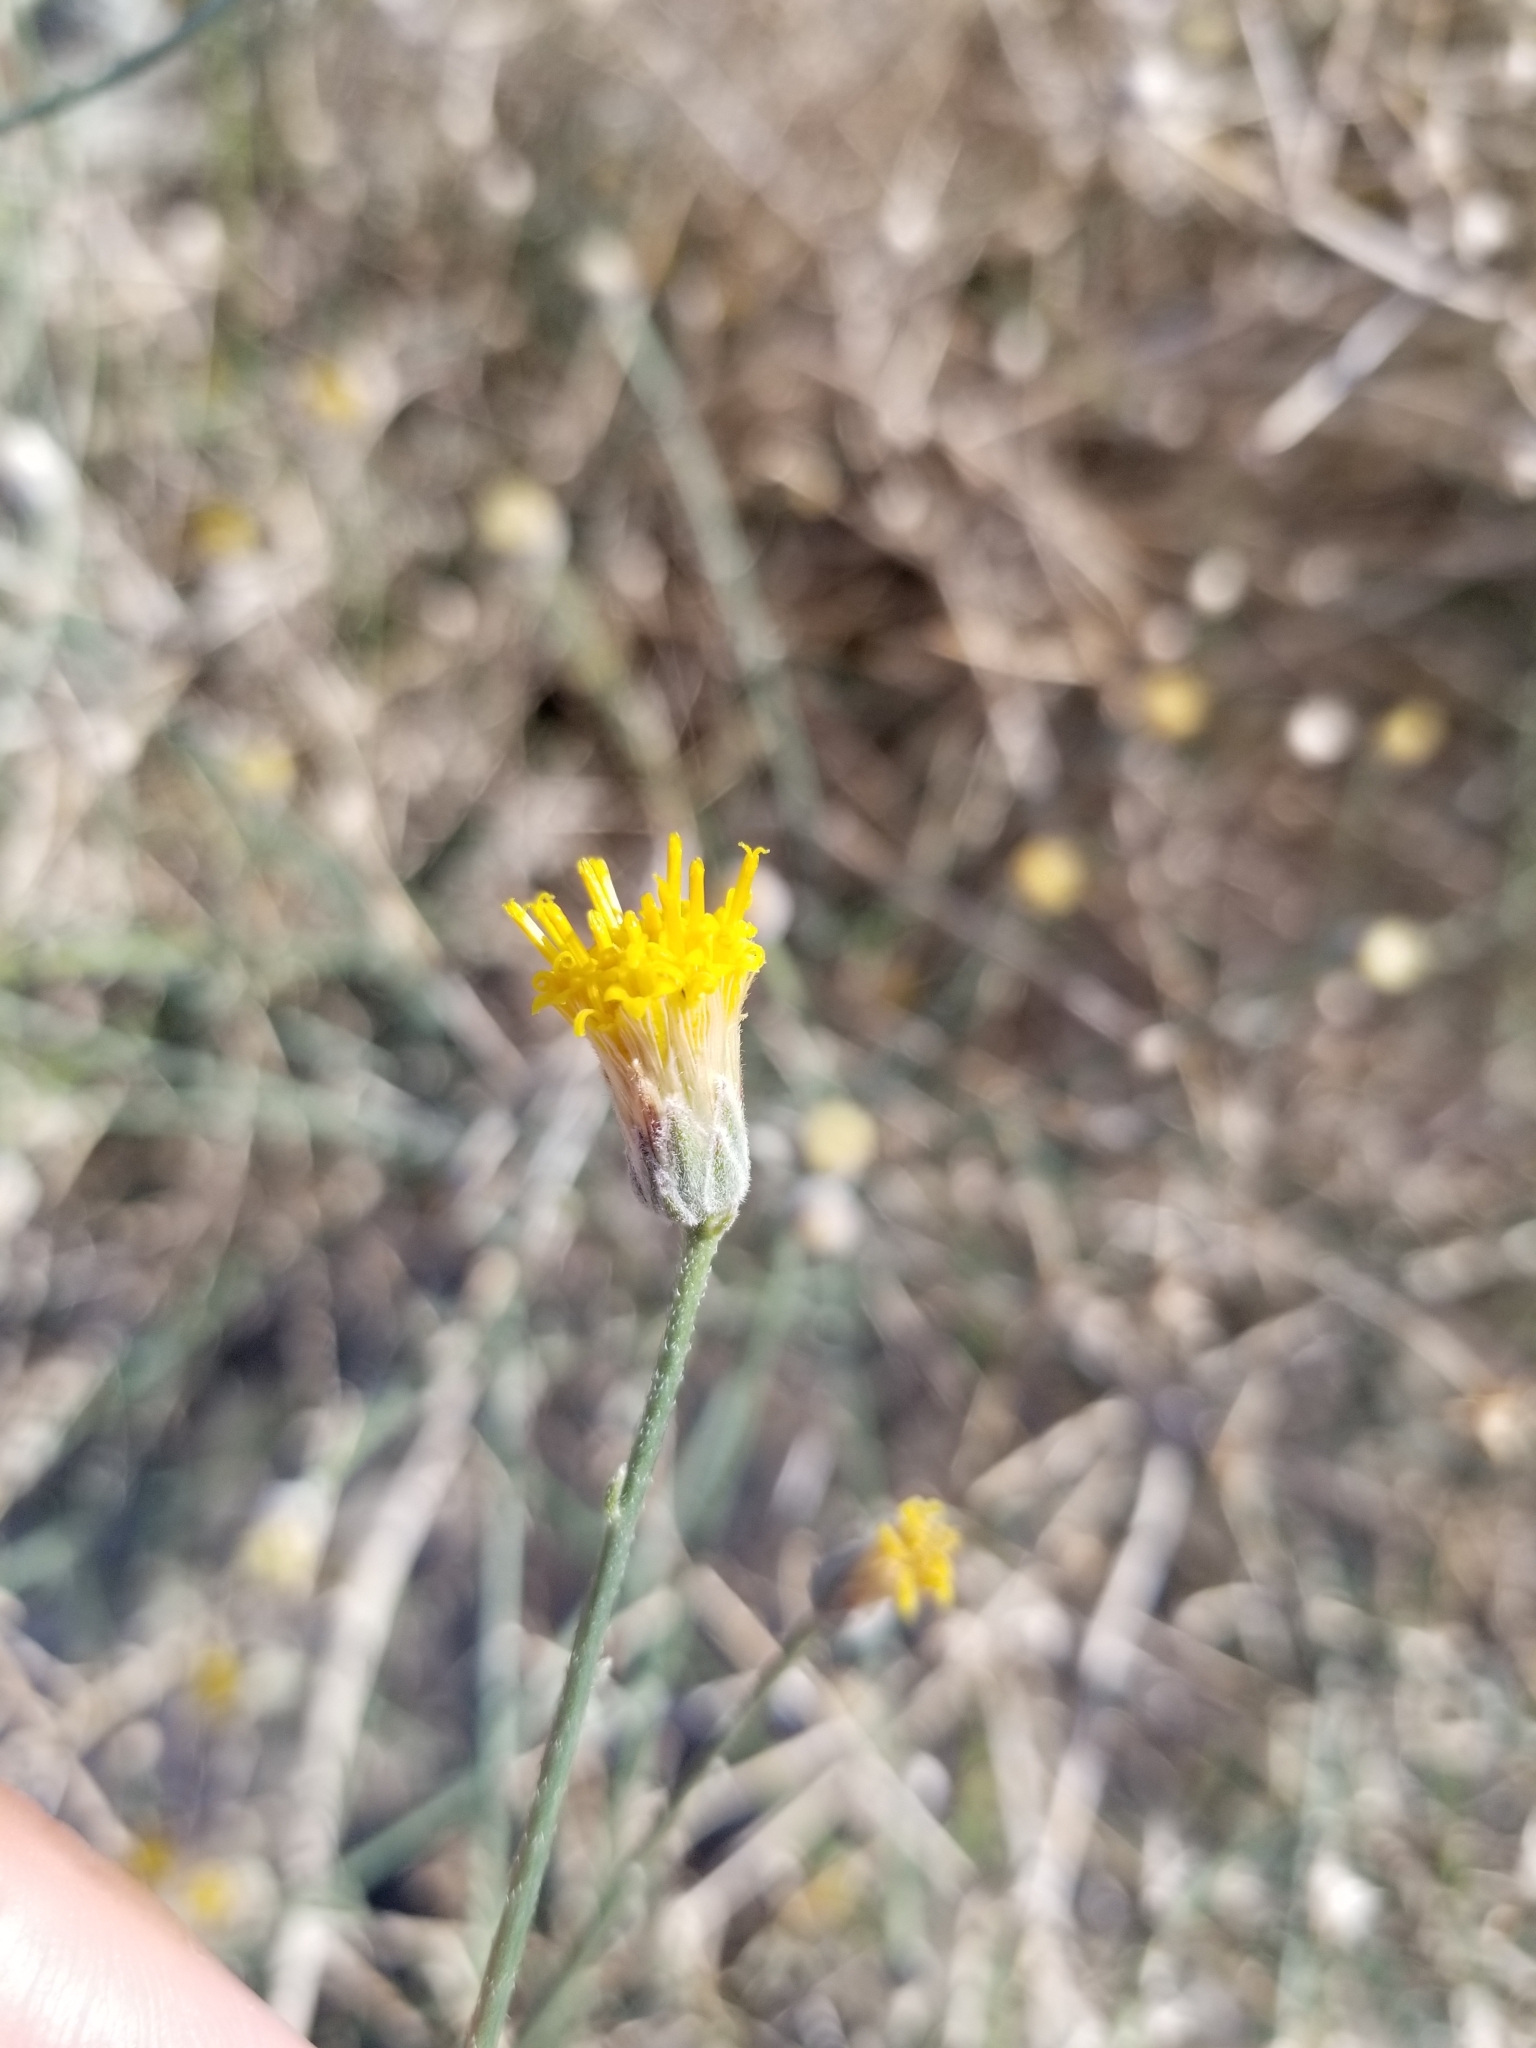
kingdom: Plantae
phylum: Tracheophyta
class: Magnoliopsida
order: Asterales
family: Asteraceae
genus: Bebbia
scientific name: Bebbia juncea
